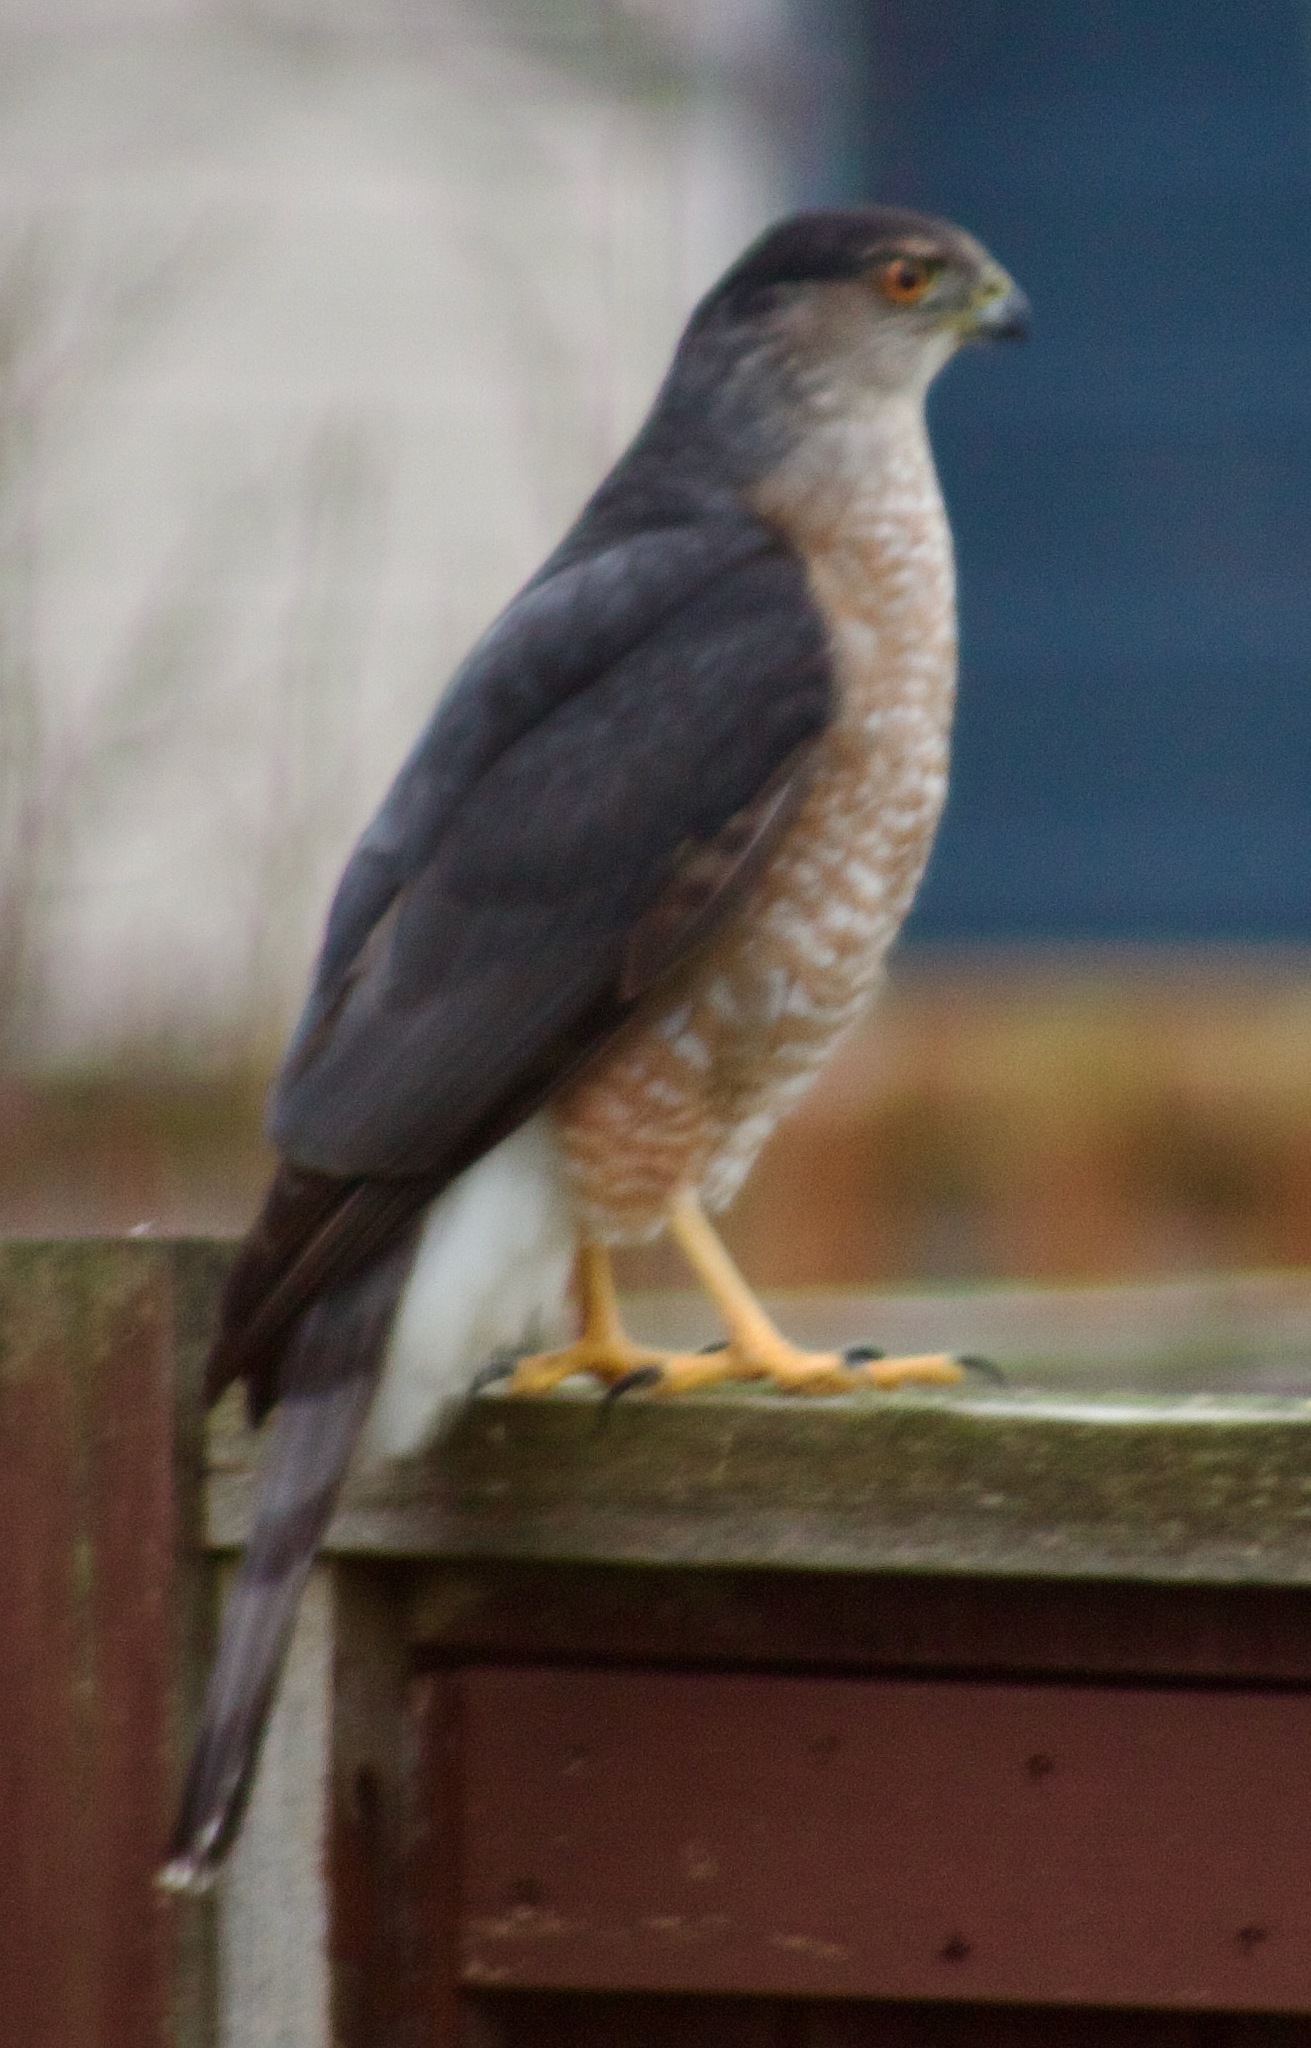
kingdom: Animalia
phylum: Chordata
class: Aves
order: Accipitriformes
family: Accipitridae
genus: Accipiter
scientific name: Accipiter cooperii
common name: Cooper's hawk
